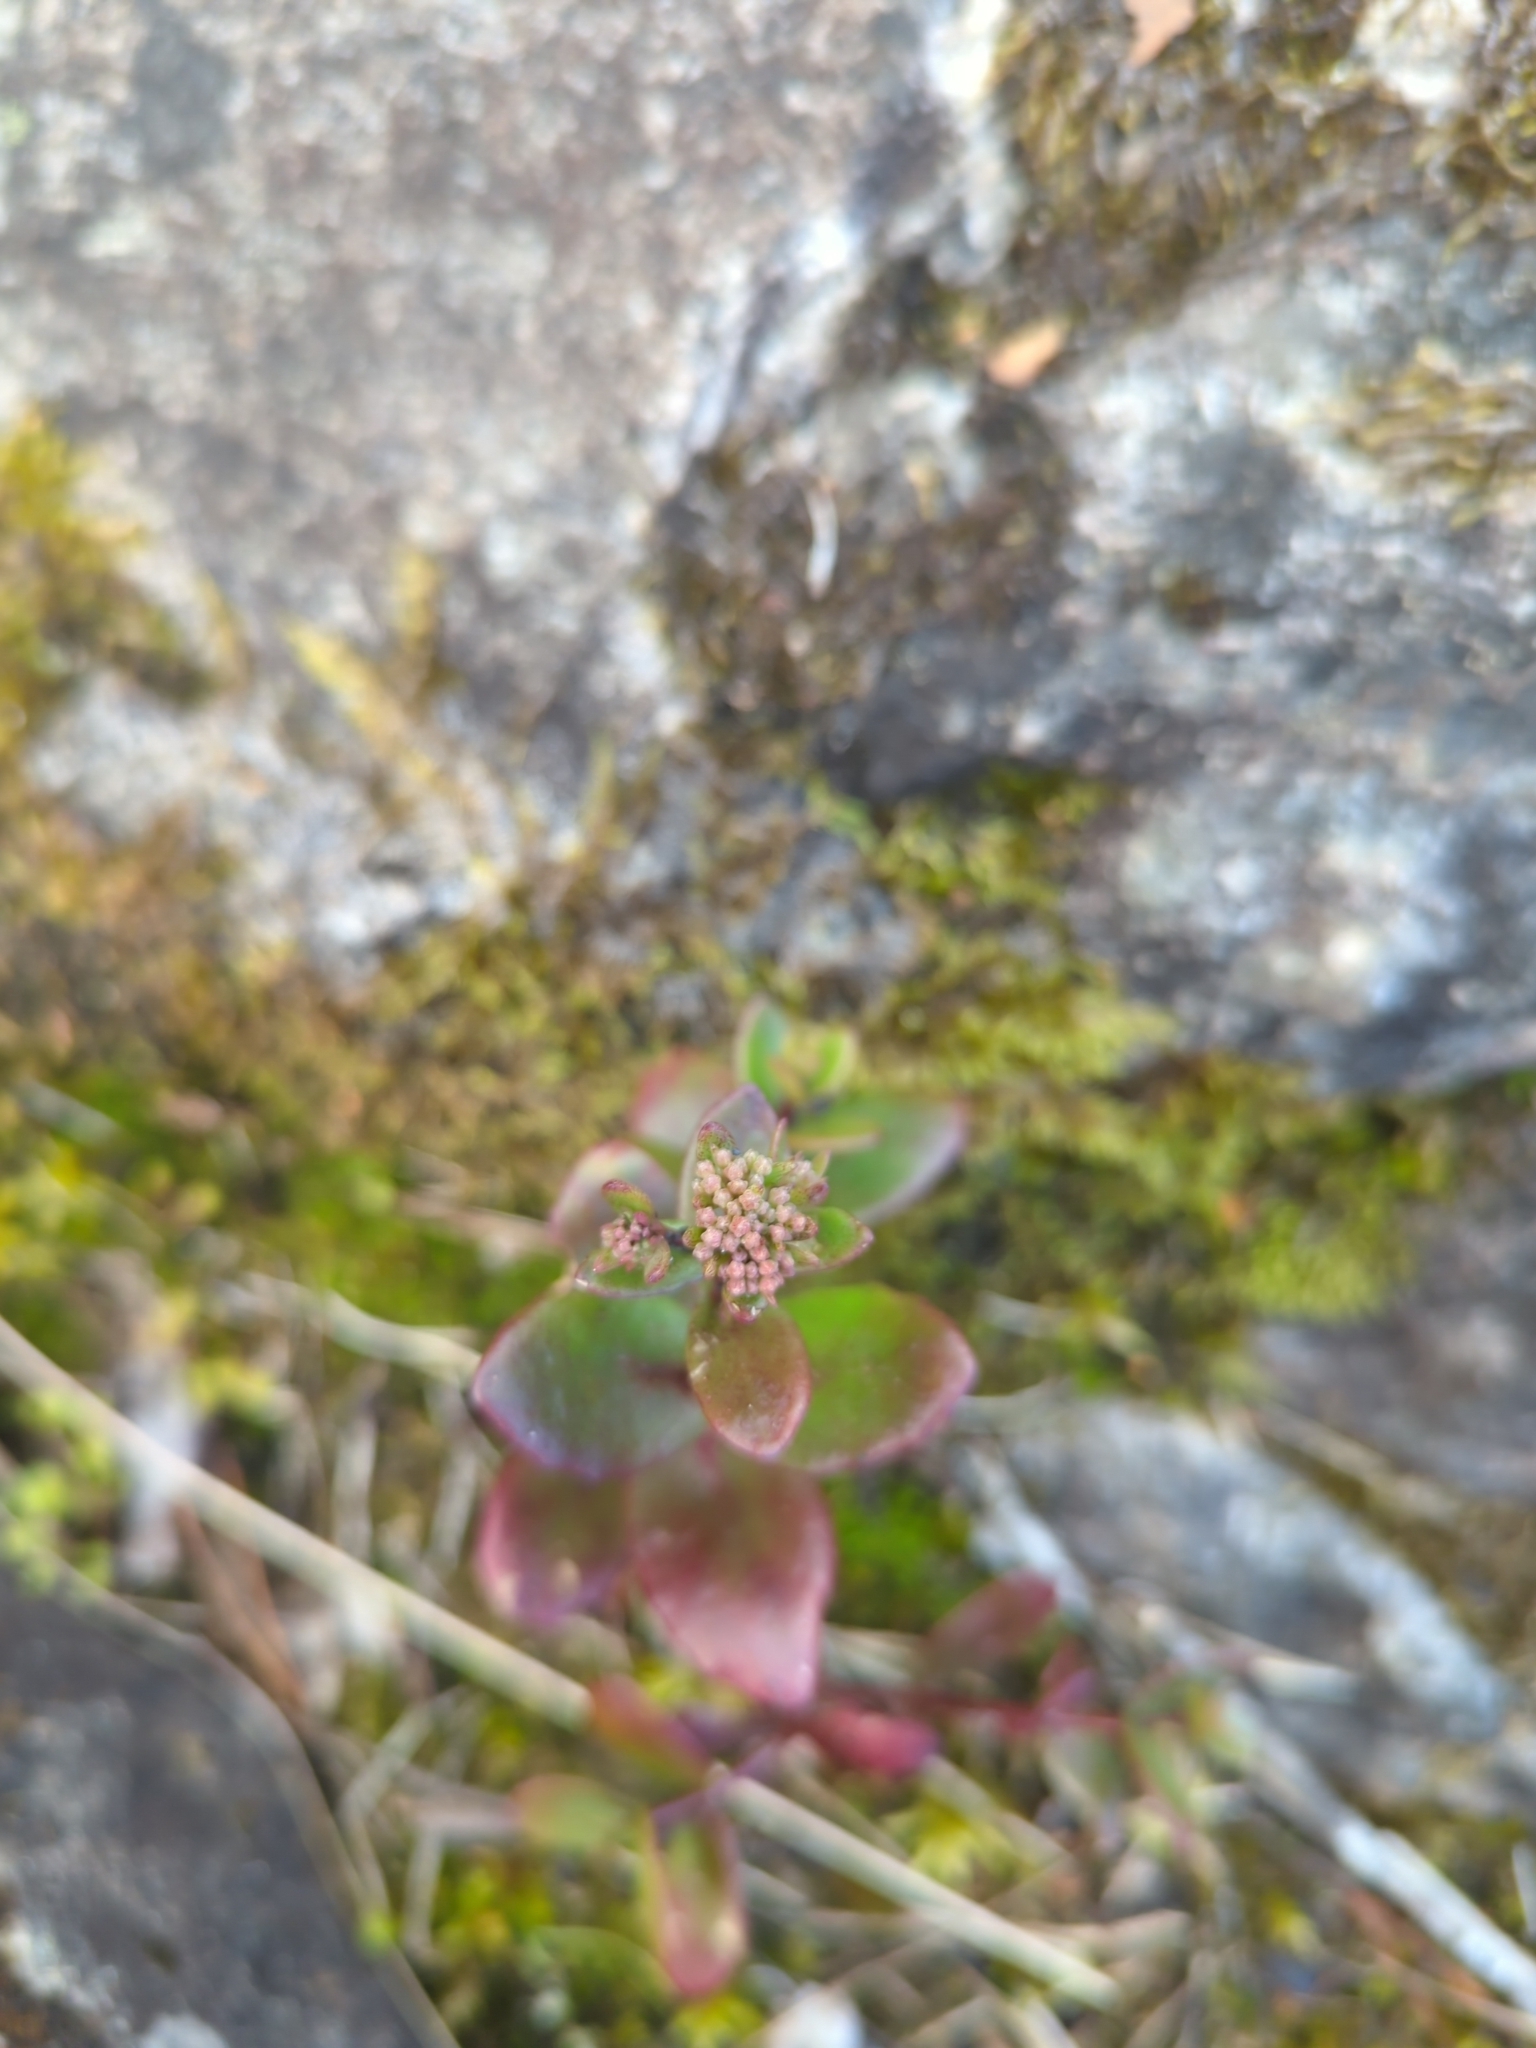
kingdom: Plantae
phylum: Tracheophyta
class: Magnoliopsida
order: Saxifragales
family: Crassulaceae
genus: Hylotelephium
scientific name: Hylotelephium maximum
